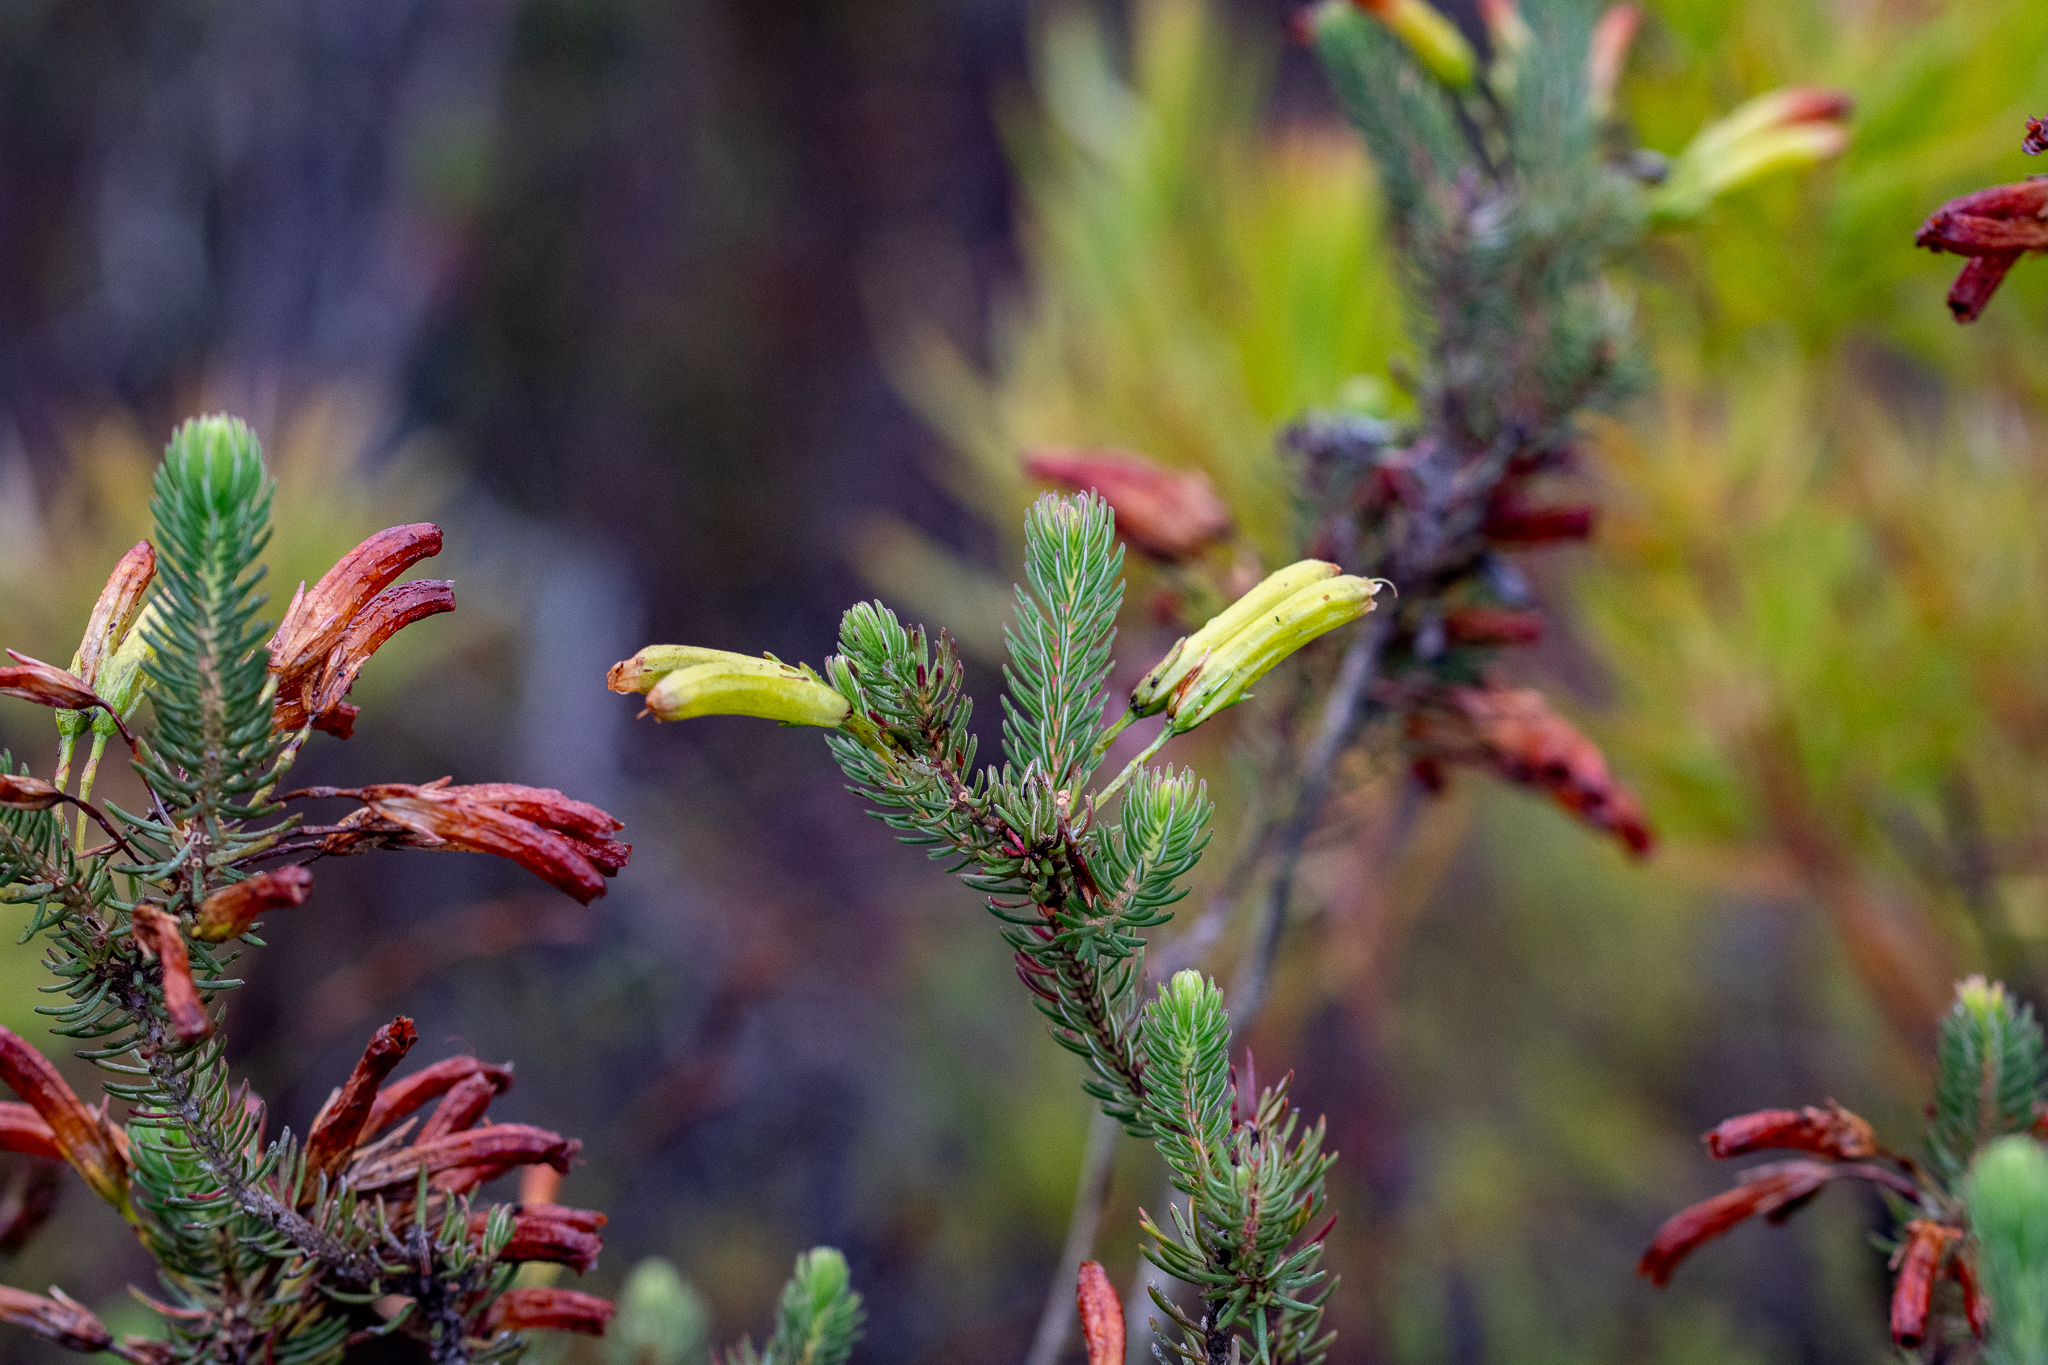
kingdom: Plantae
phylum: Tracheophyta
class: Magnoliopsida
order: Ericales
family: Ericaceae
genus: Erica
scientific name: Erica thomae
